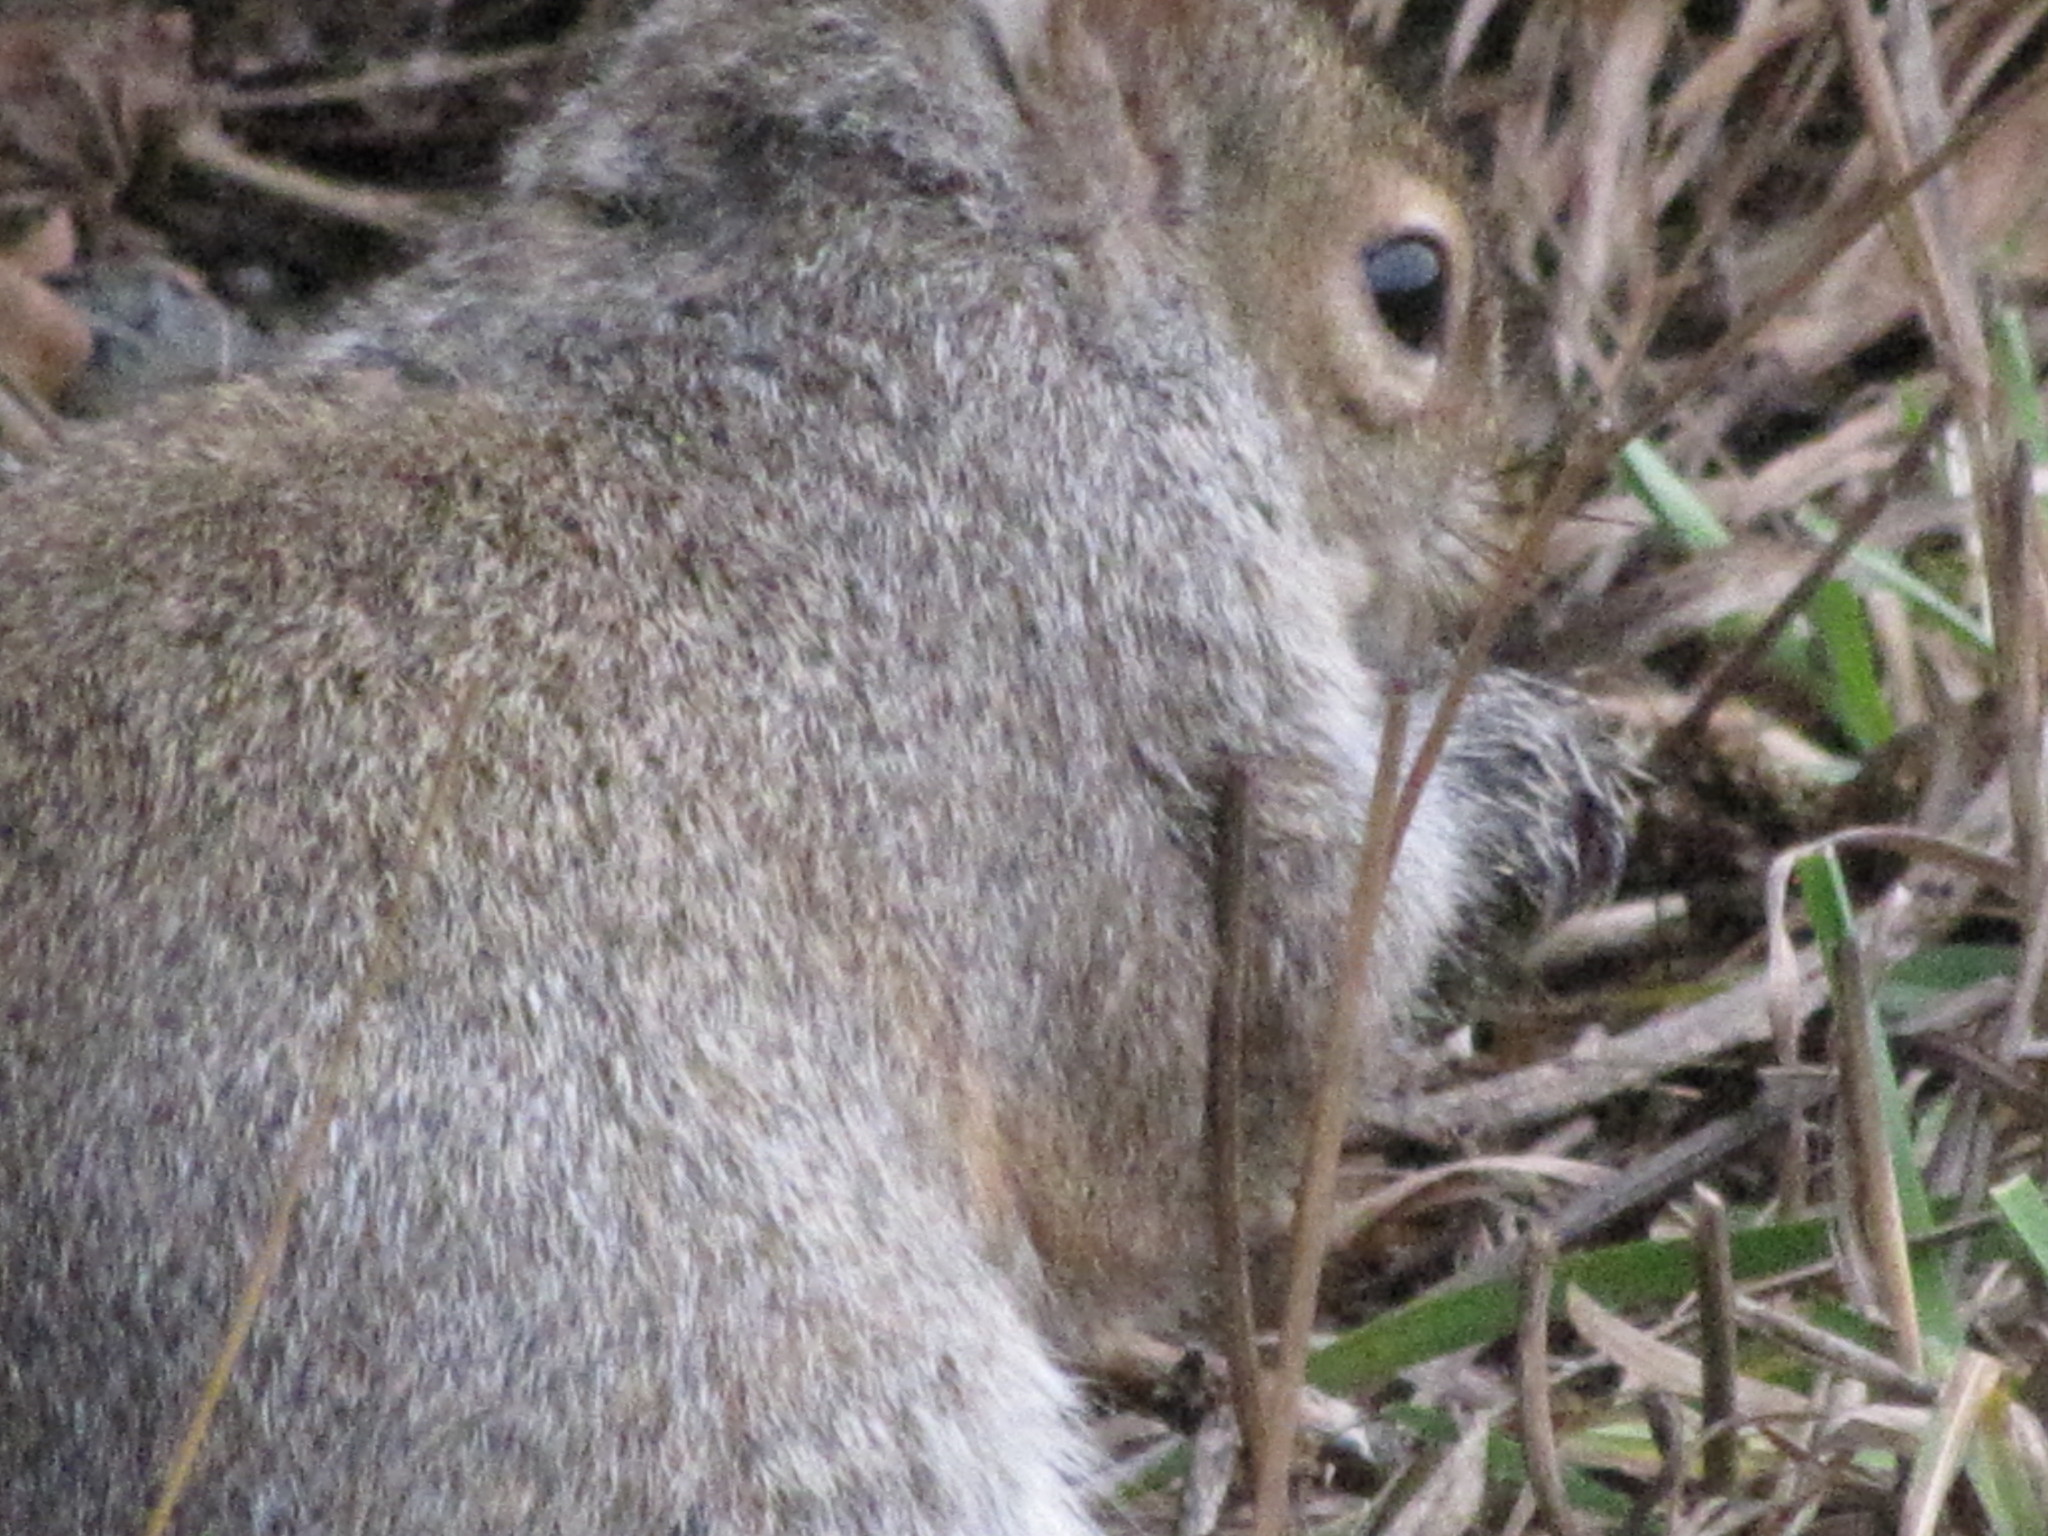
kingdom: Animalia
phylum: Chordata
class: Mammalia
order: Rodentia
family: Sciuridae
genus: Sciurus
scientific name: Sciurus carolinensis
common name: Eastern gray squirrel
